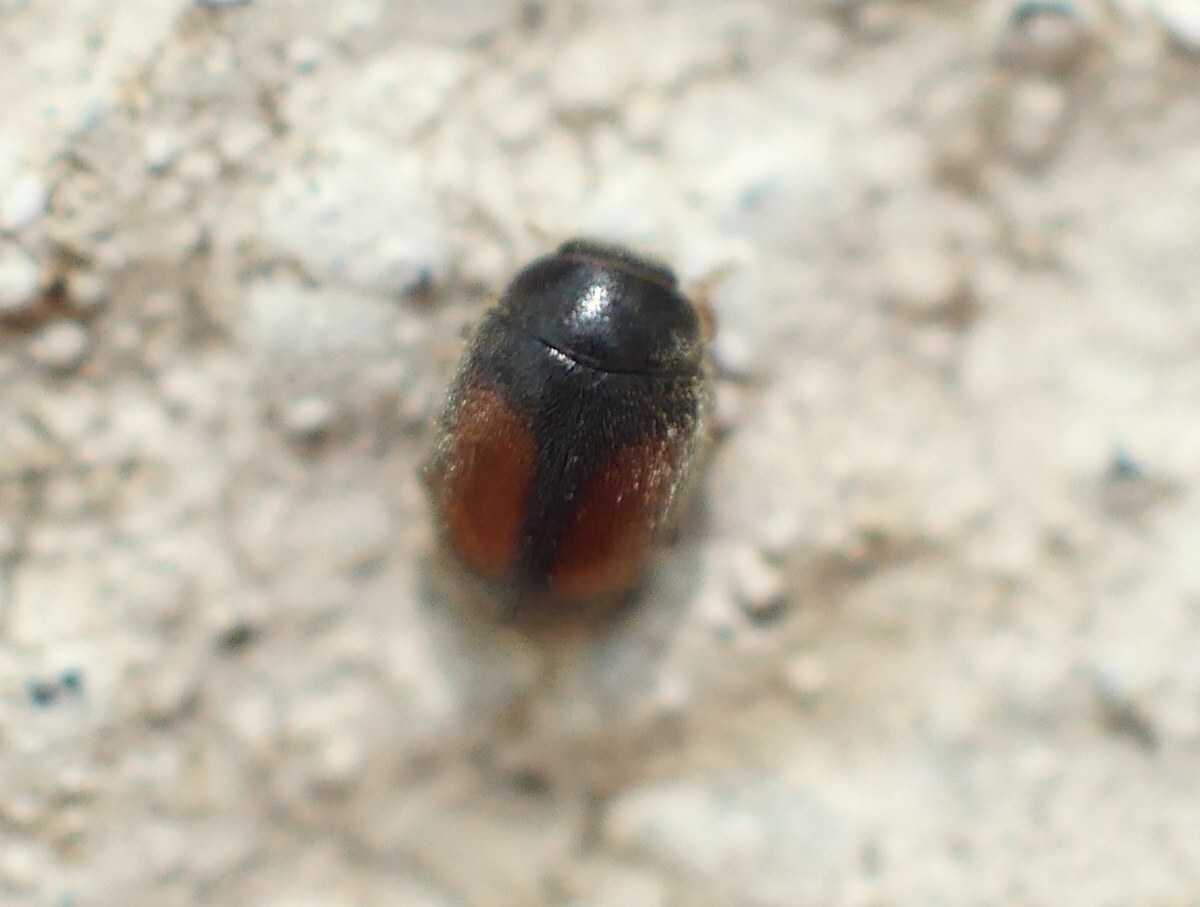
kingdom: Animalia
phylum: Arthropoda
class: Insecta
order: Coleoptera
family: Coccinellidae
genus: Scymnus
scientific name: Scymnus flagellisiphonatus
